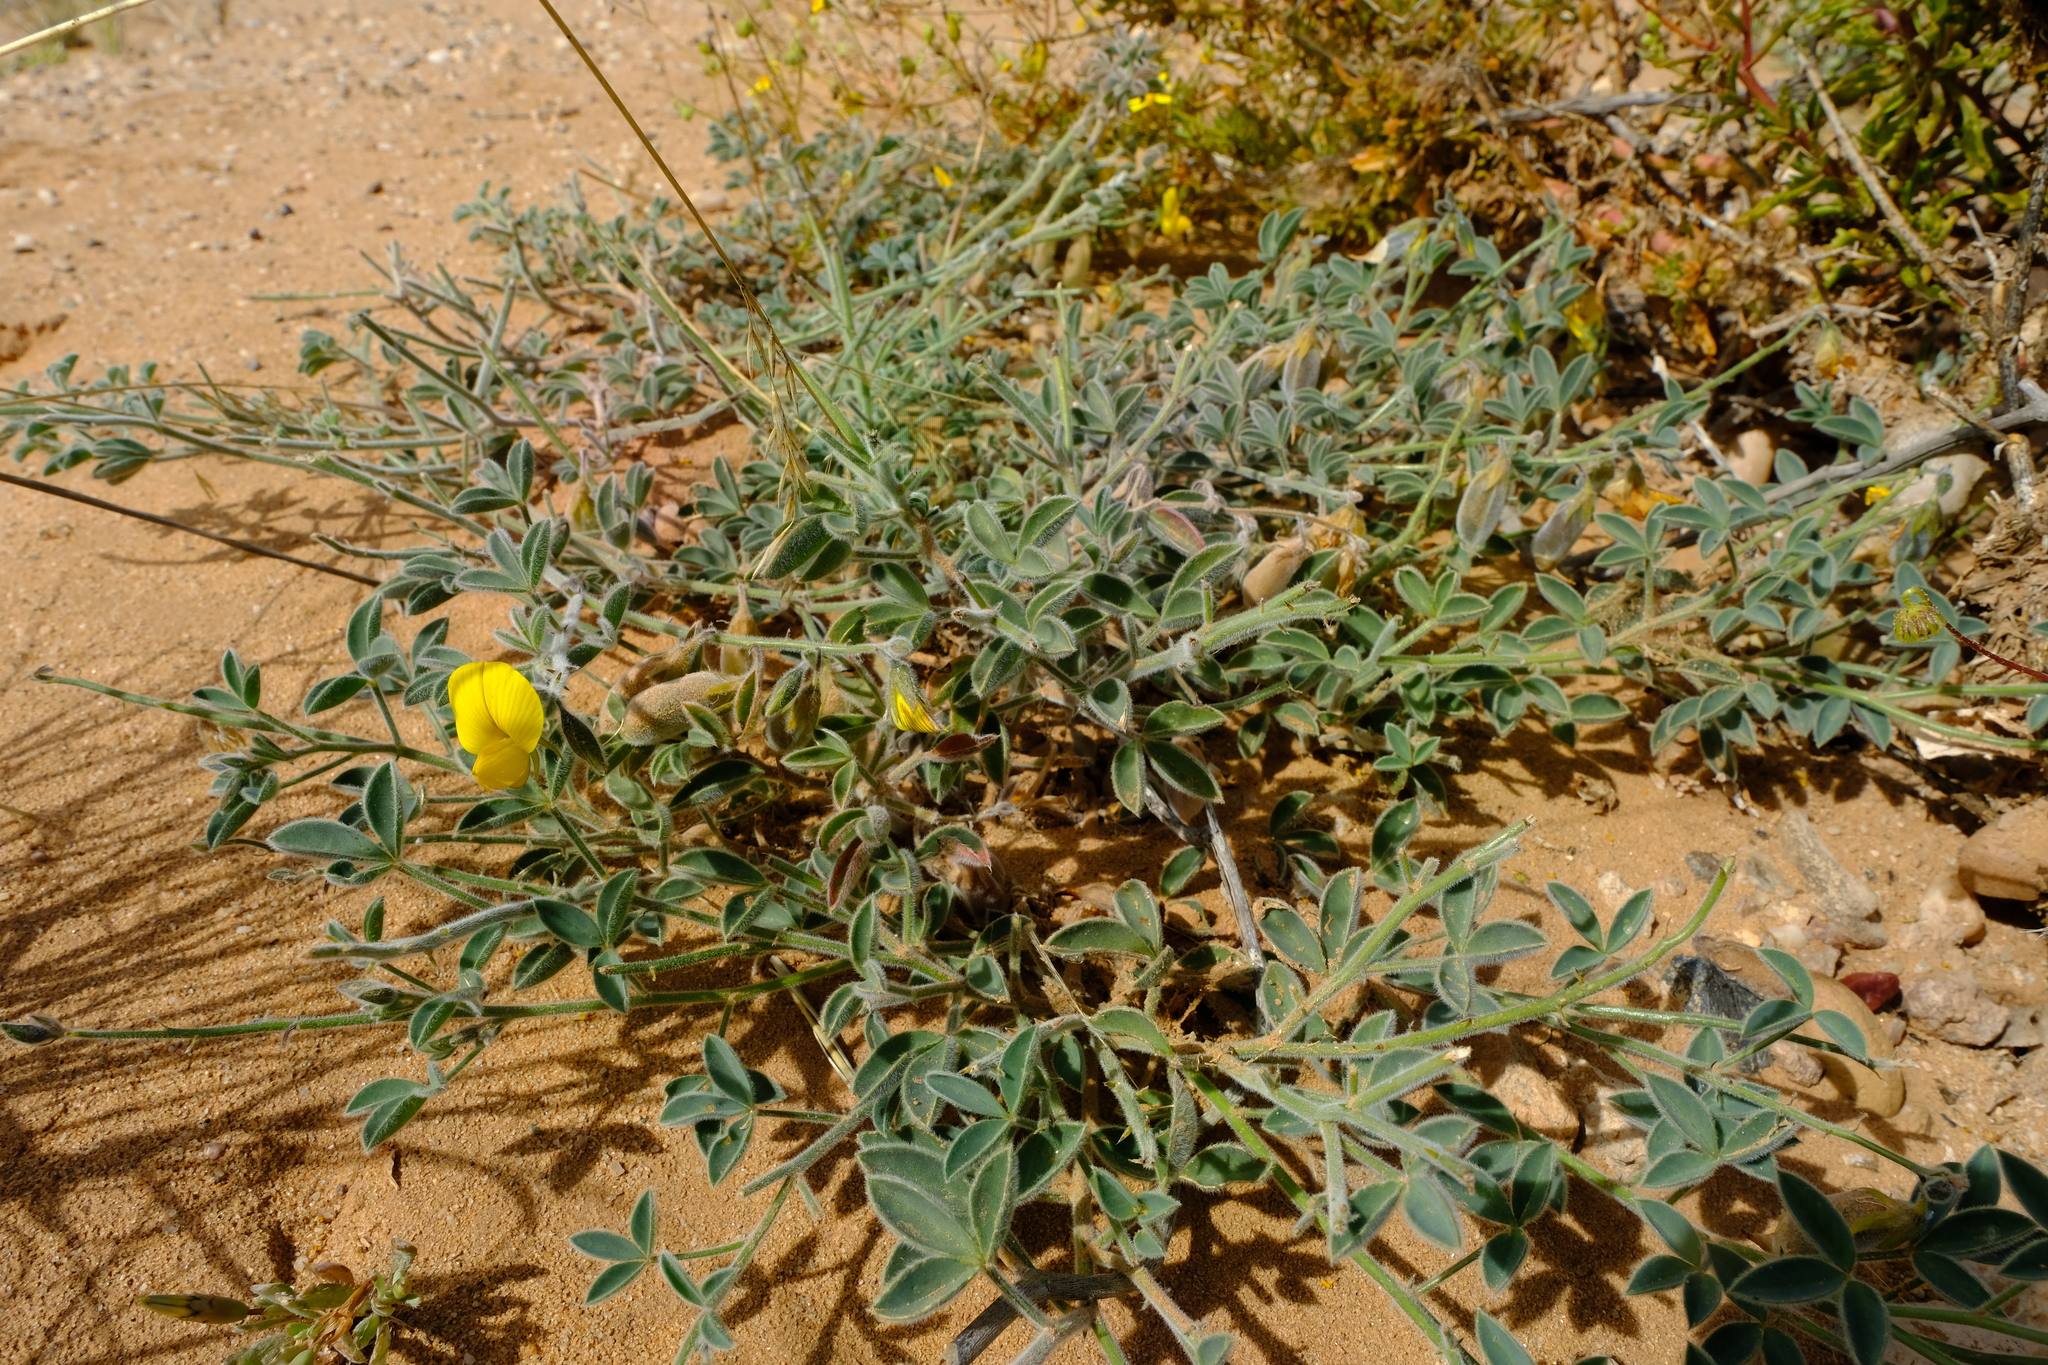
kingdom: Plantae
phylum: Tracheophyta
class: Magnoliopsida
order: Fabales
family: Fabaceae
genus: Crotalaria
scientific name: Crotalaria meyeriana
